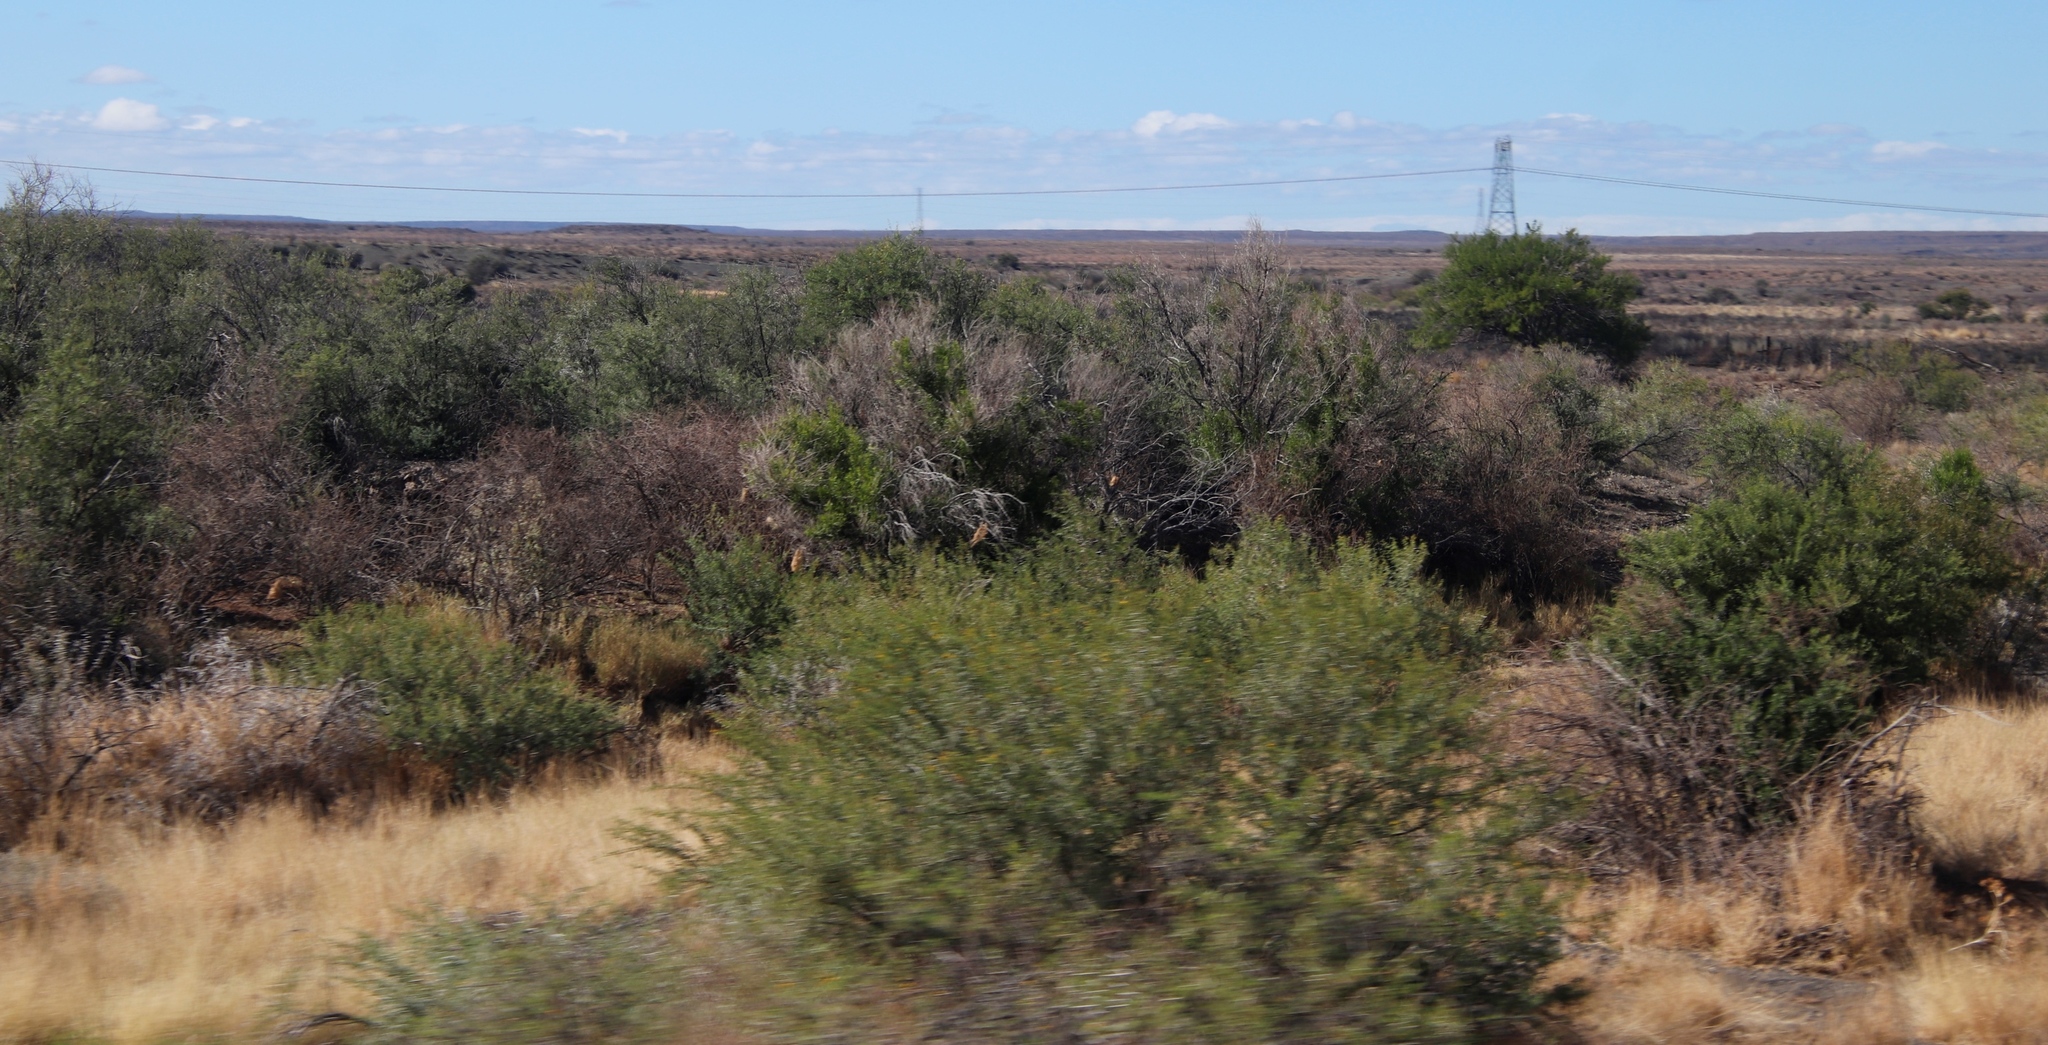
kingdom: Plantae
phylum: Tracheophyta
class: Magnoliopsida
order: Fabales
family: Fabaceae
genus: Vachellia
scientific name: Vachellia karroo
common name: Sweet thorn
